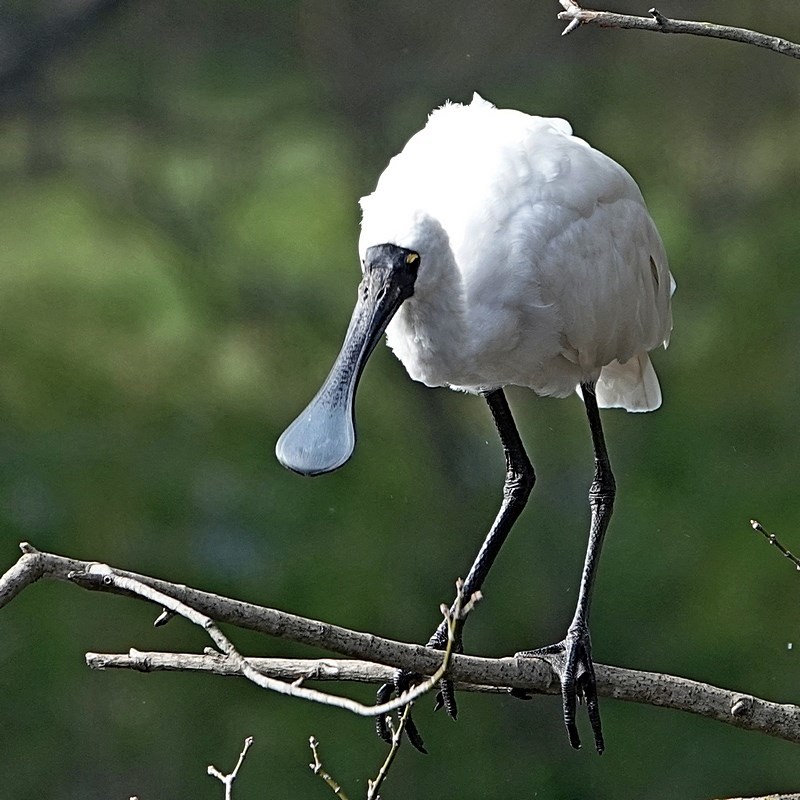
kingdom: Animalia
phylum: Chordata
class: Aves
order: Pelecaniformes
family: Threskiornithidae
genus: Platalea
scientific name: Platalea regia
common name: Royal spoonbill
